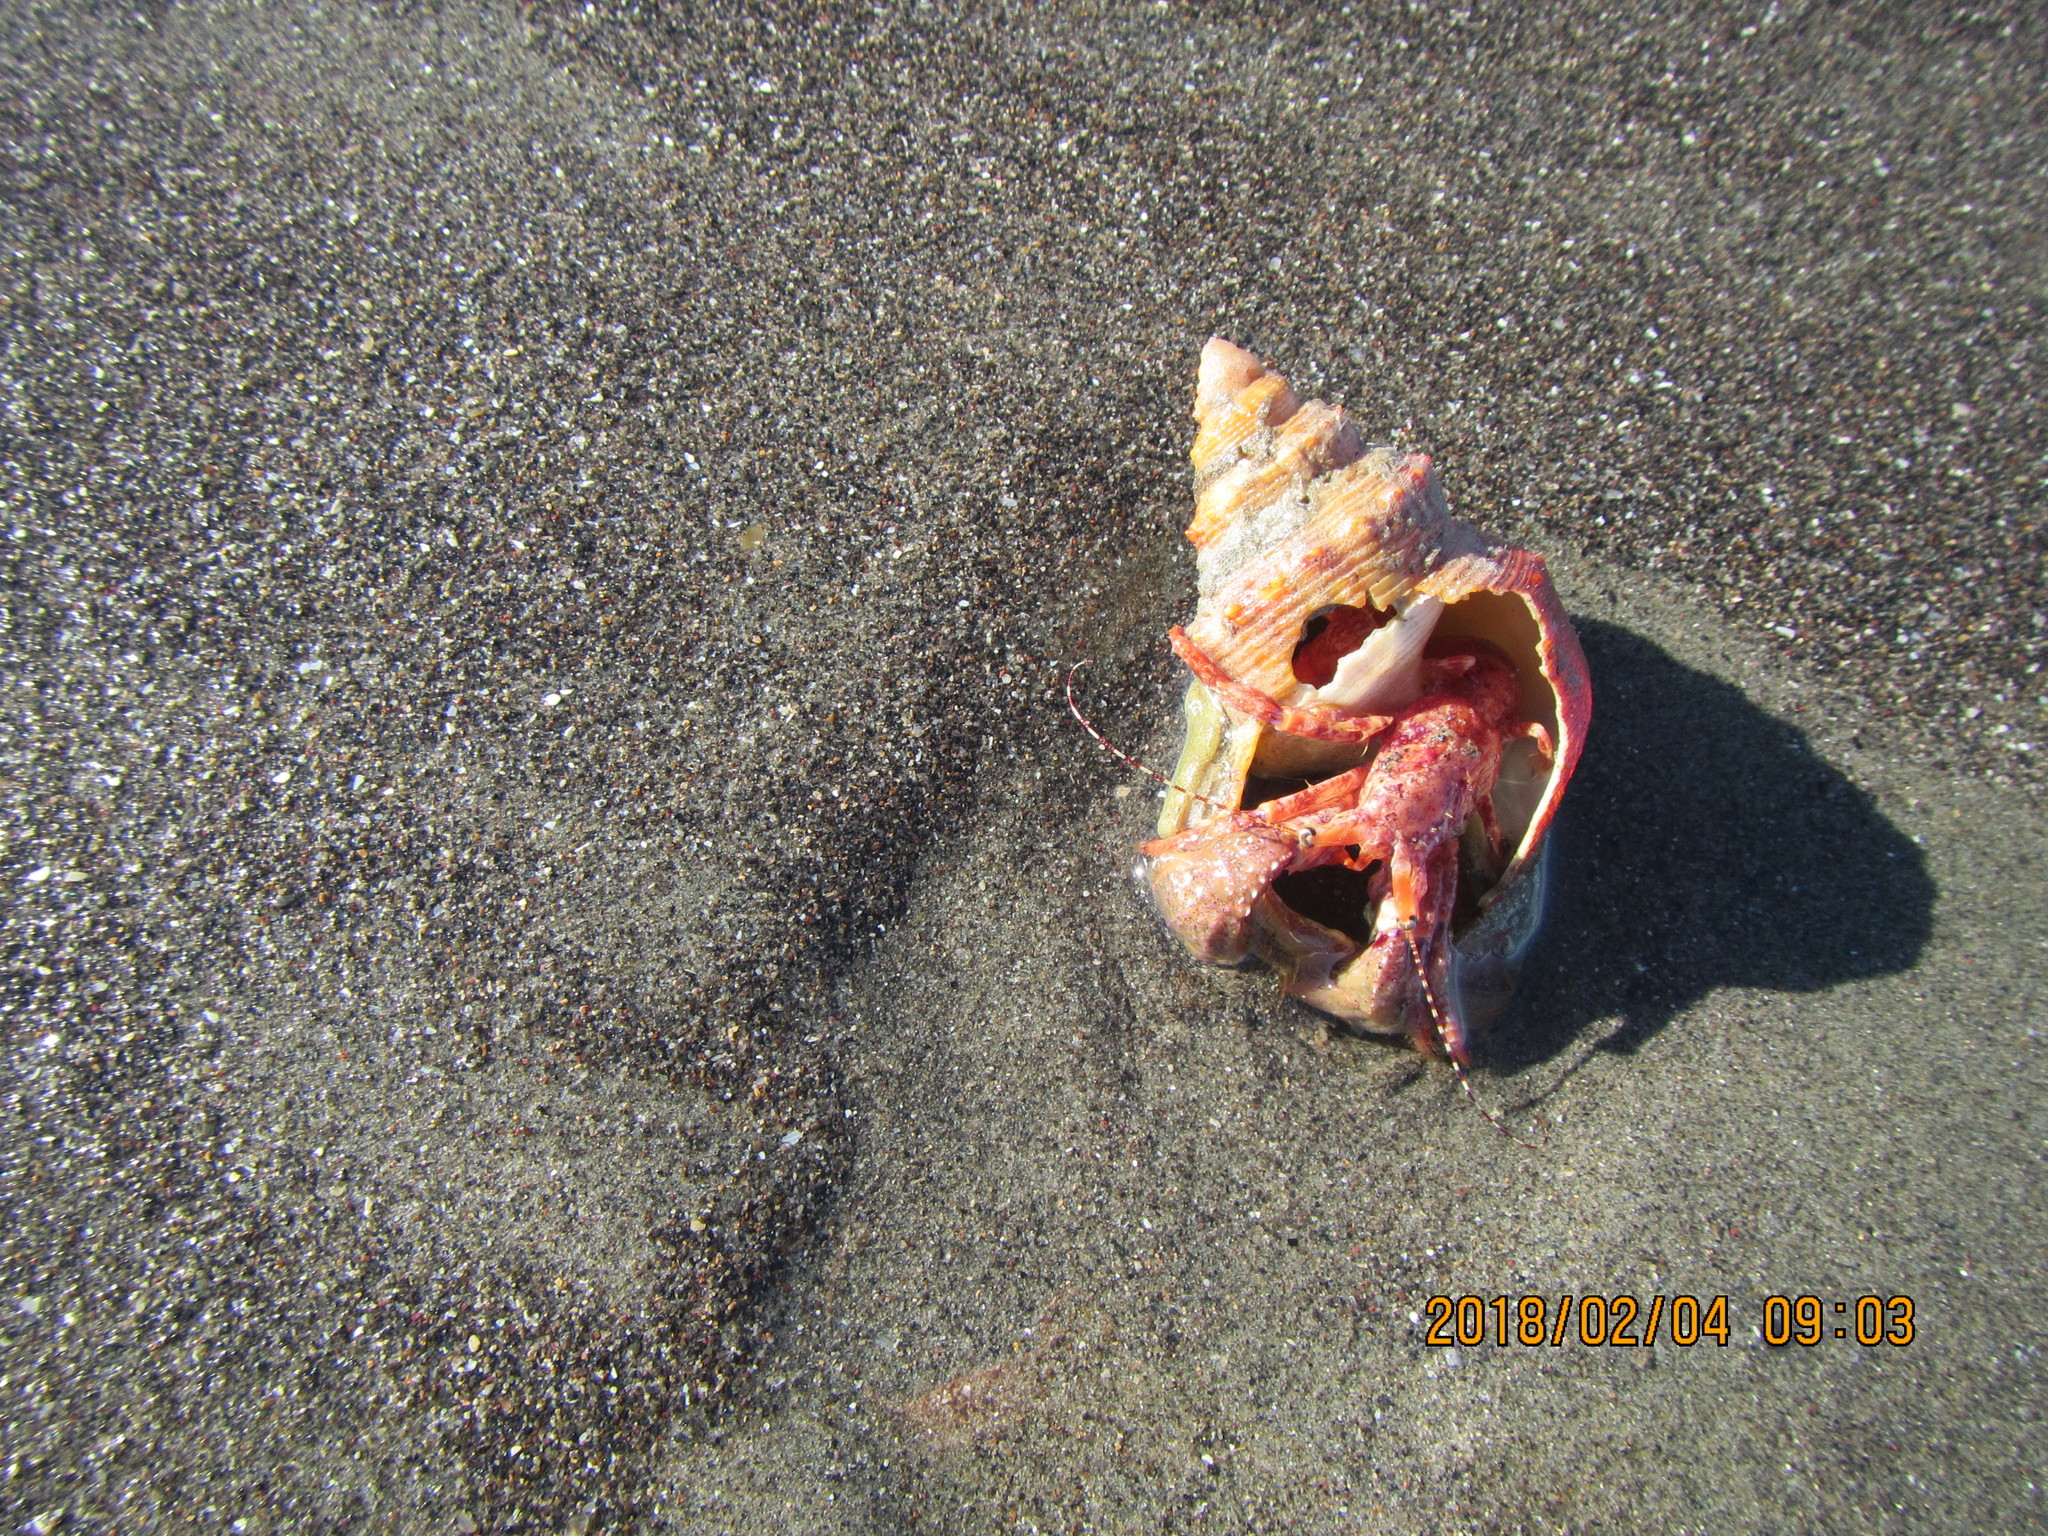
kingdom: Animalia
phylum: Arthropoda
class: Malacostraca
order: Decapoda
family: Paguridae
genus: Diacanthurus
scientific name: Diacanthurus spinulimanus
